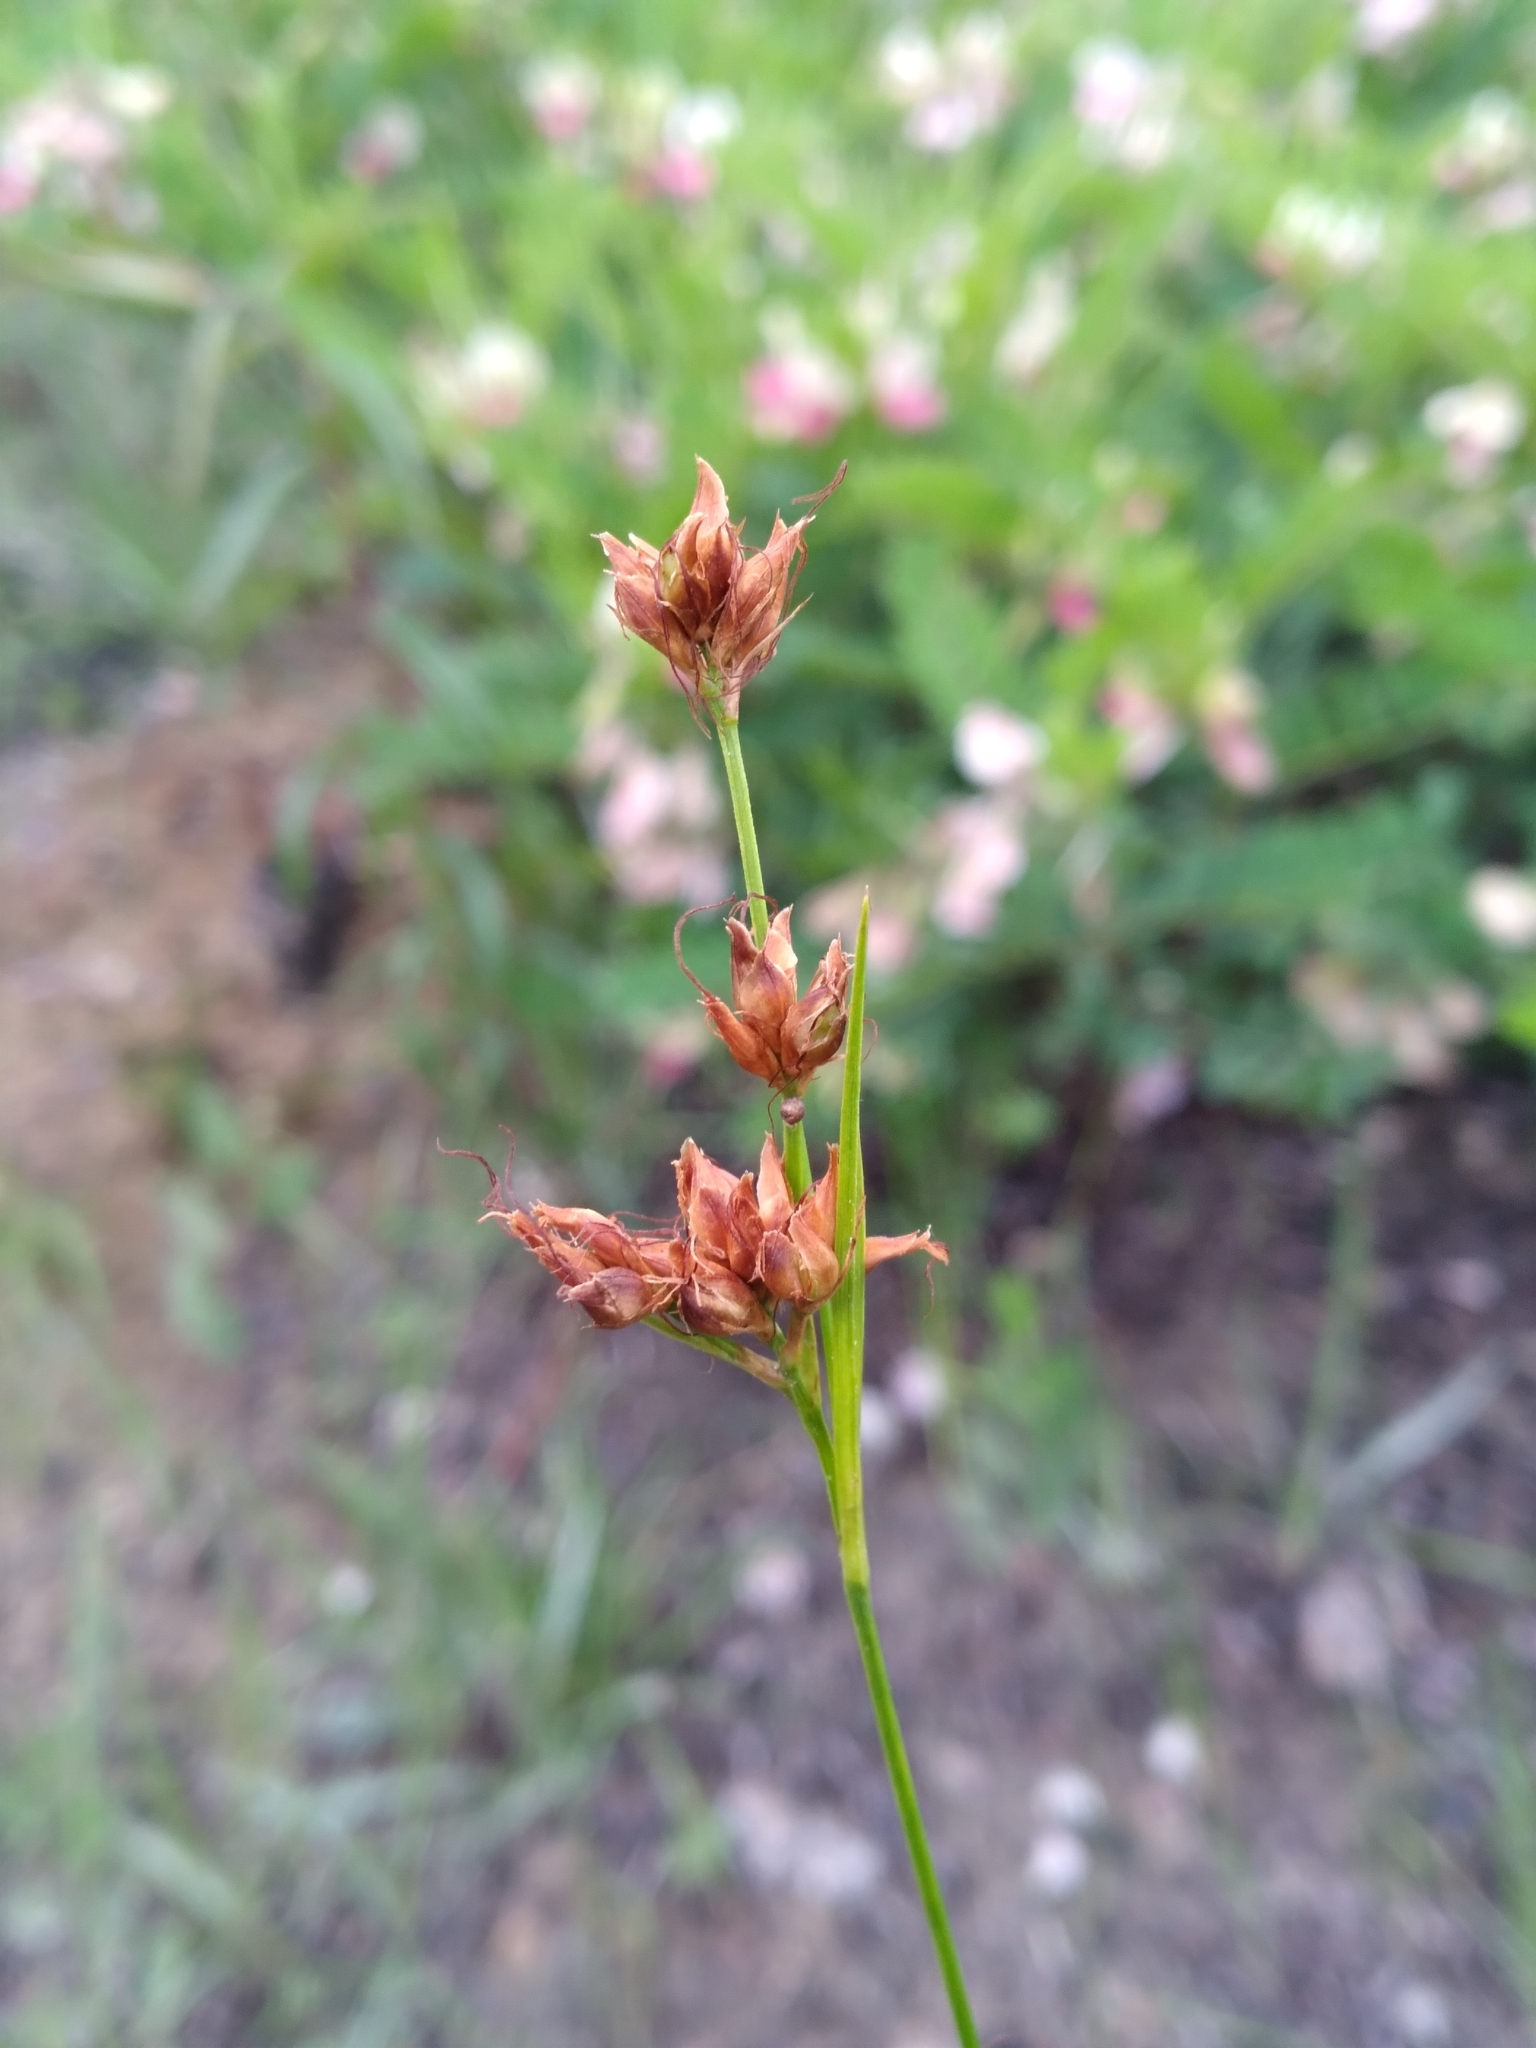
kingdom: Plantae
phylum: Tracheophyta
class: Liliopsida
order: Poales
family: Cyperaceae
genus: Rhynchospora
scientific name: Rhynchospora grayi
